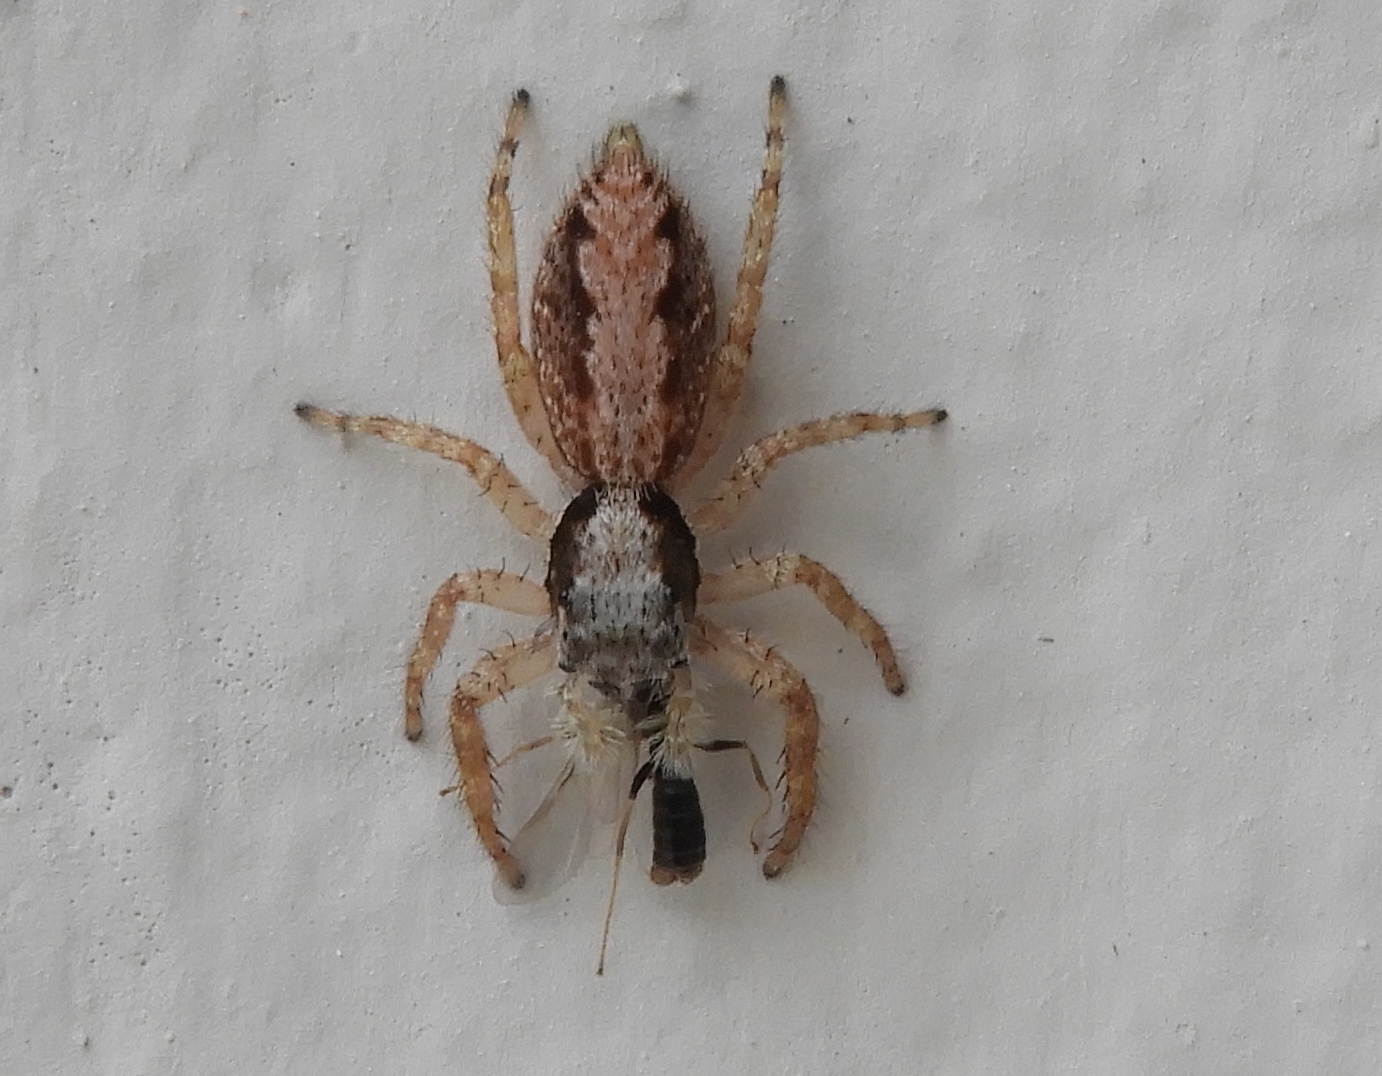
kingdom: Animalia
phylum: Arthropoda
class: Arachnida
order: Araneae
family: Salticidae
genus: Balmaceda
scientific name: Balmaceda
